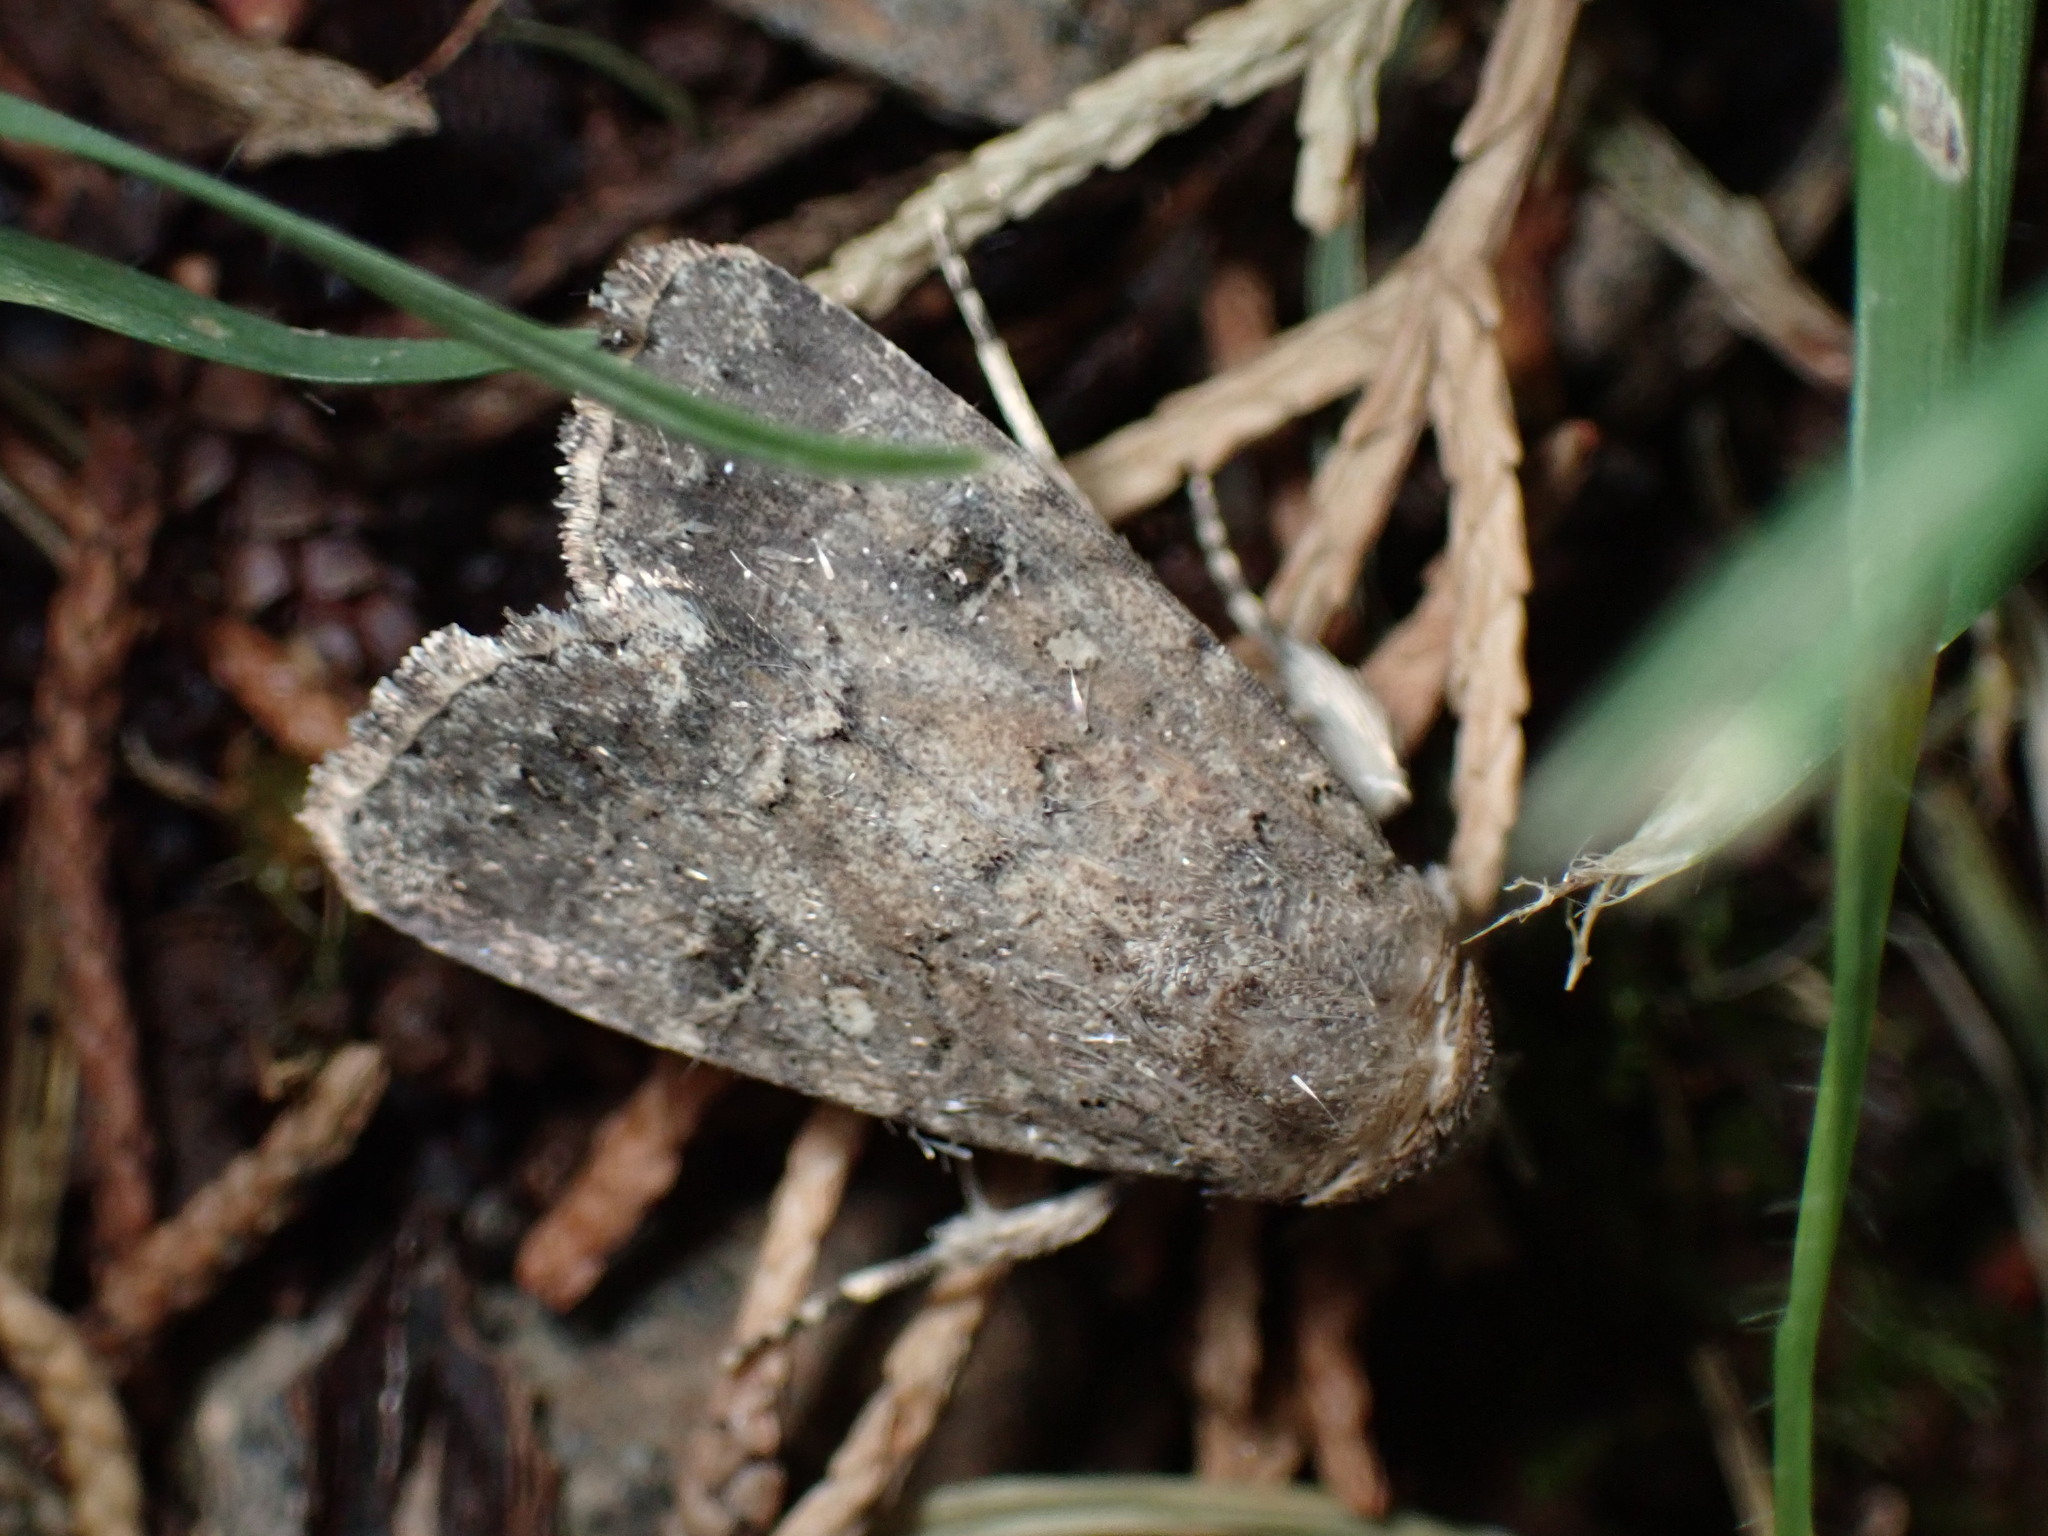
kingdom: Animalia
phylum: Arthropoda
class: Insecta
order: Lepidoptera
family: Noctuidae
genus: Spodoptera
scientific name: Spodoptera cilium
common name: Dark mottled willow
